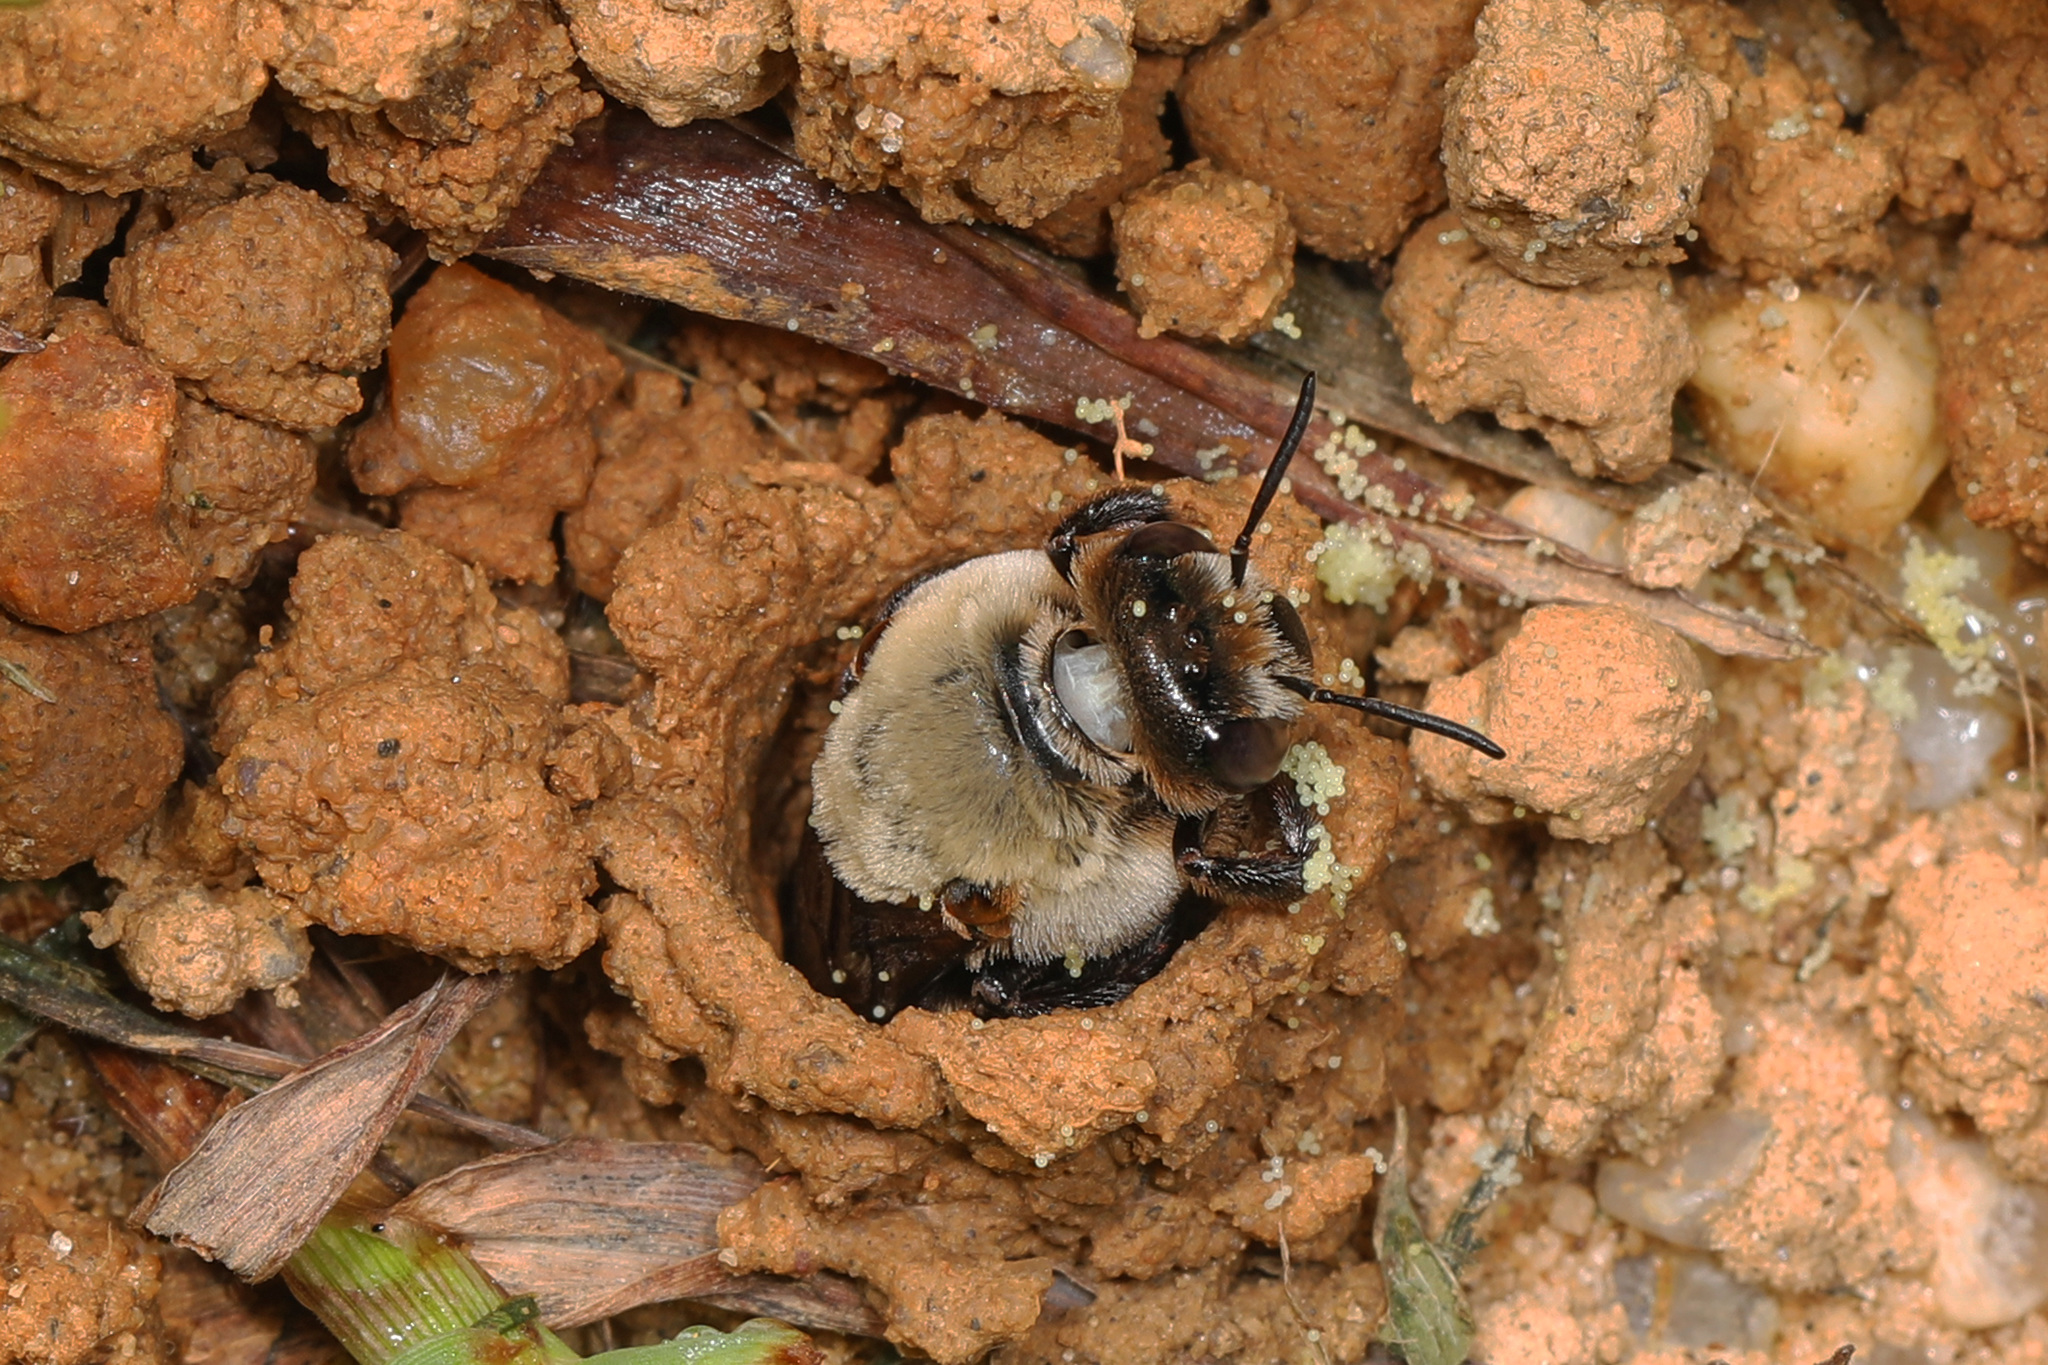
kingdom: Animalia
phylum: Arthropoda
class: Insecta
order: Hymenoptera
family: Apidae
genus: Ptilothrix
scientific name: Ptilothrix bombiformis
